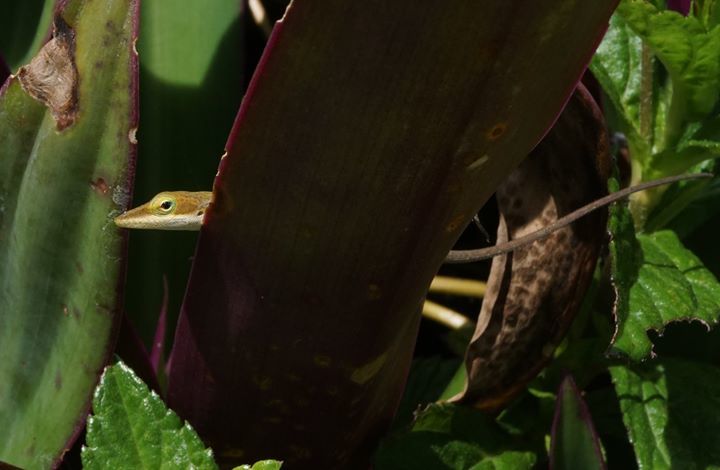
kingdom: Animalia
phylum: Chordata
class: Squamata
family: Dactyloidae
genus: Anolis
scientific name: Anolis carolinensis
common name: Green anole
